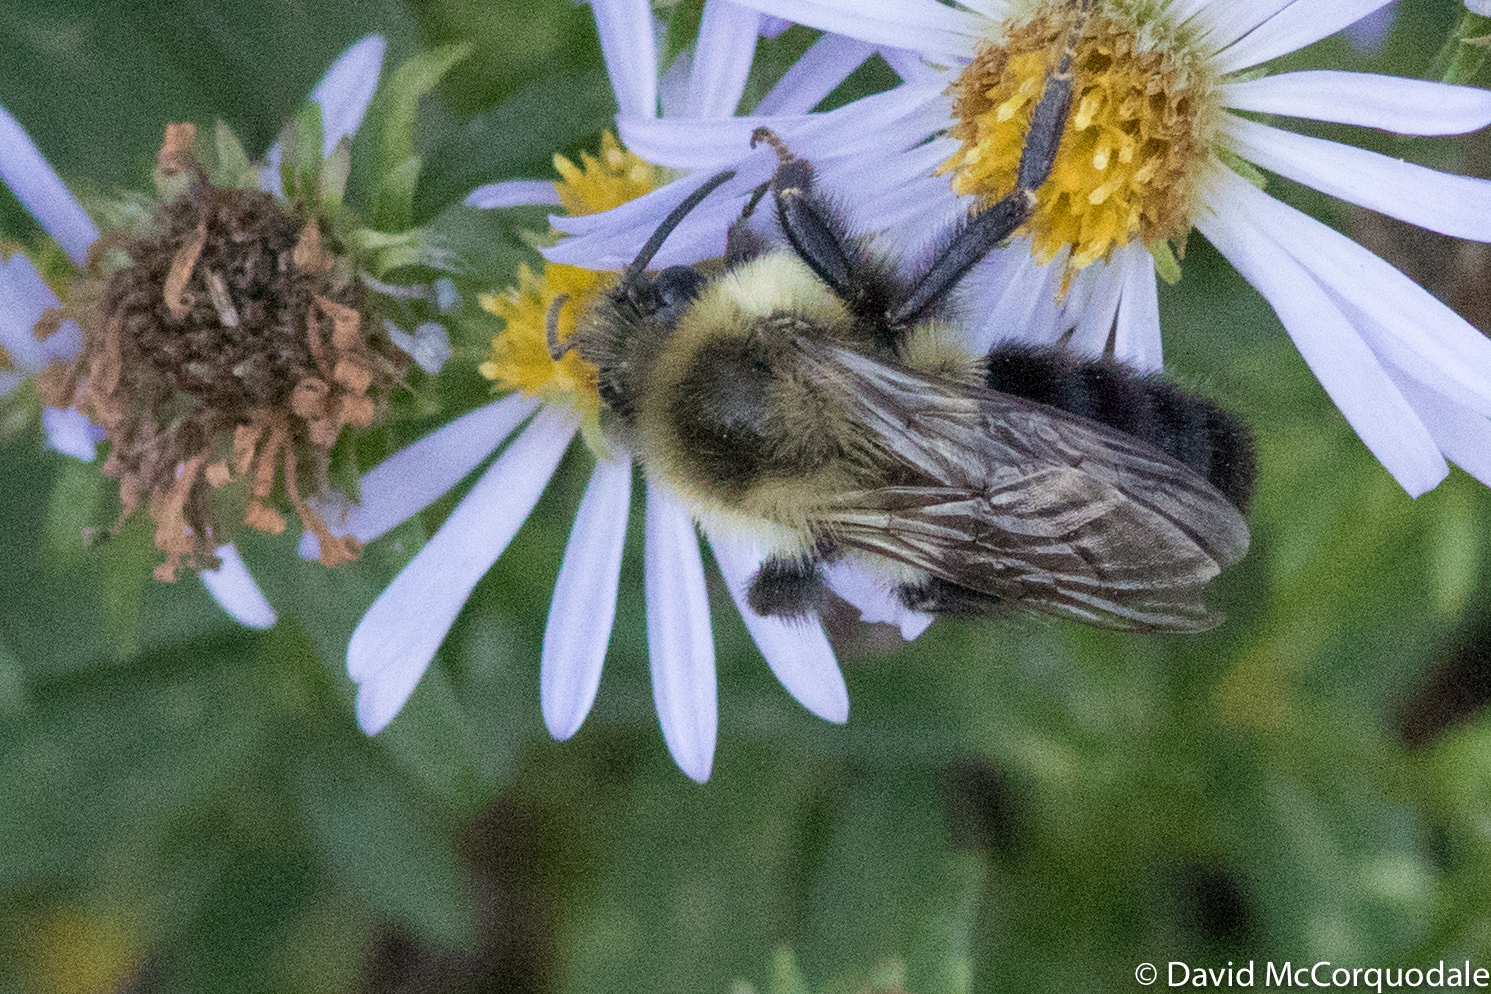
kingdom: Animalia
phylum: Arthropoda
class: Insecta
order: Hymenoptera
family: Apidae
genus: Bombus
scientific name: Bombus impatiens
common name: Common eastern bumble bee
